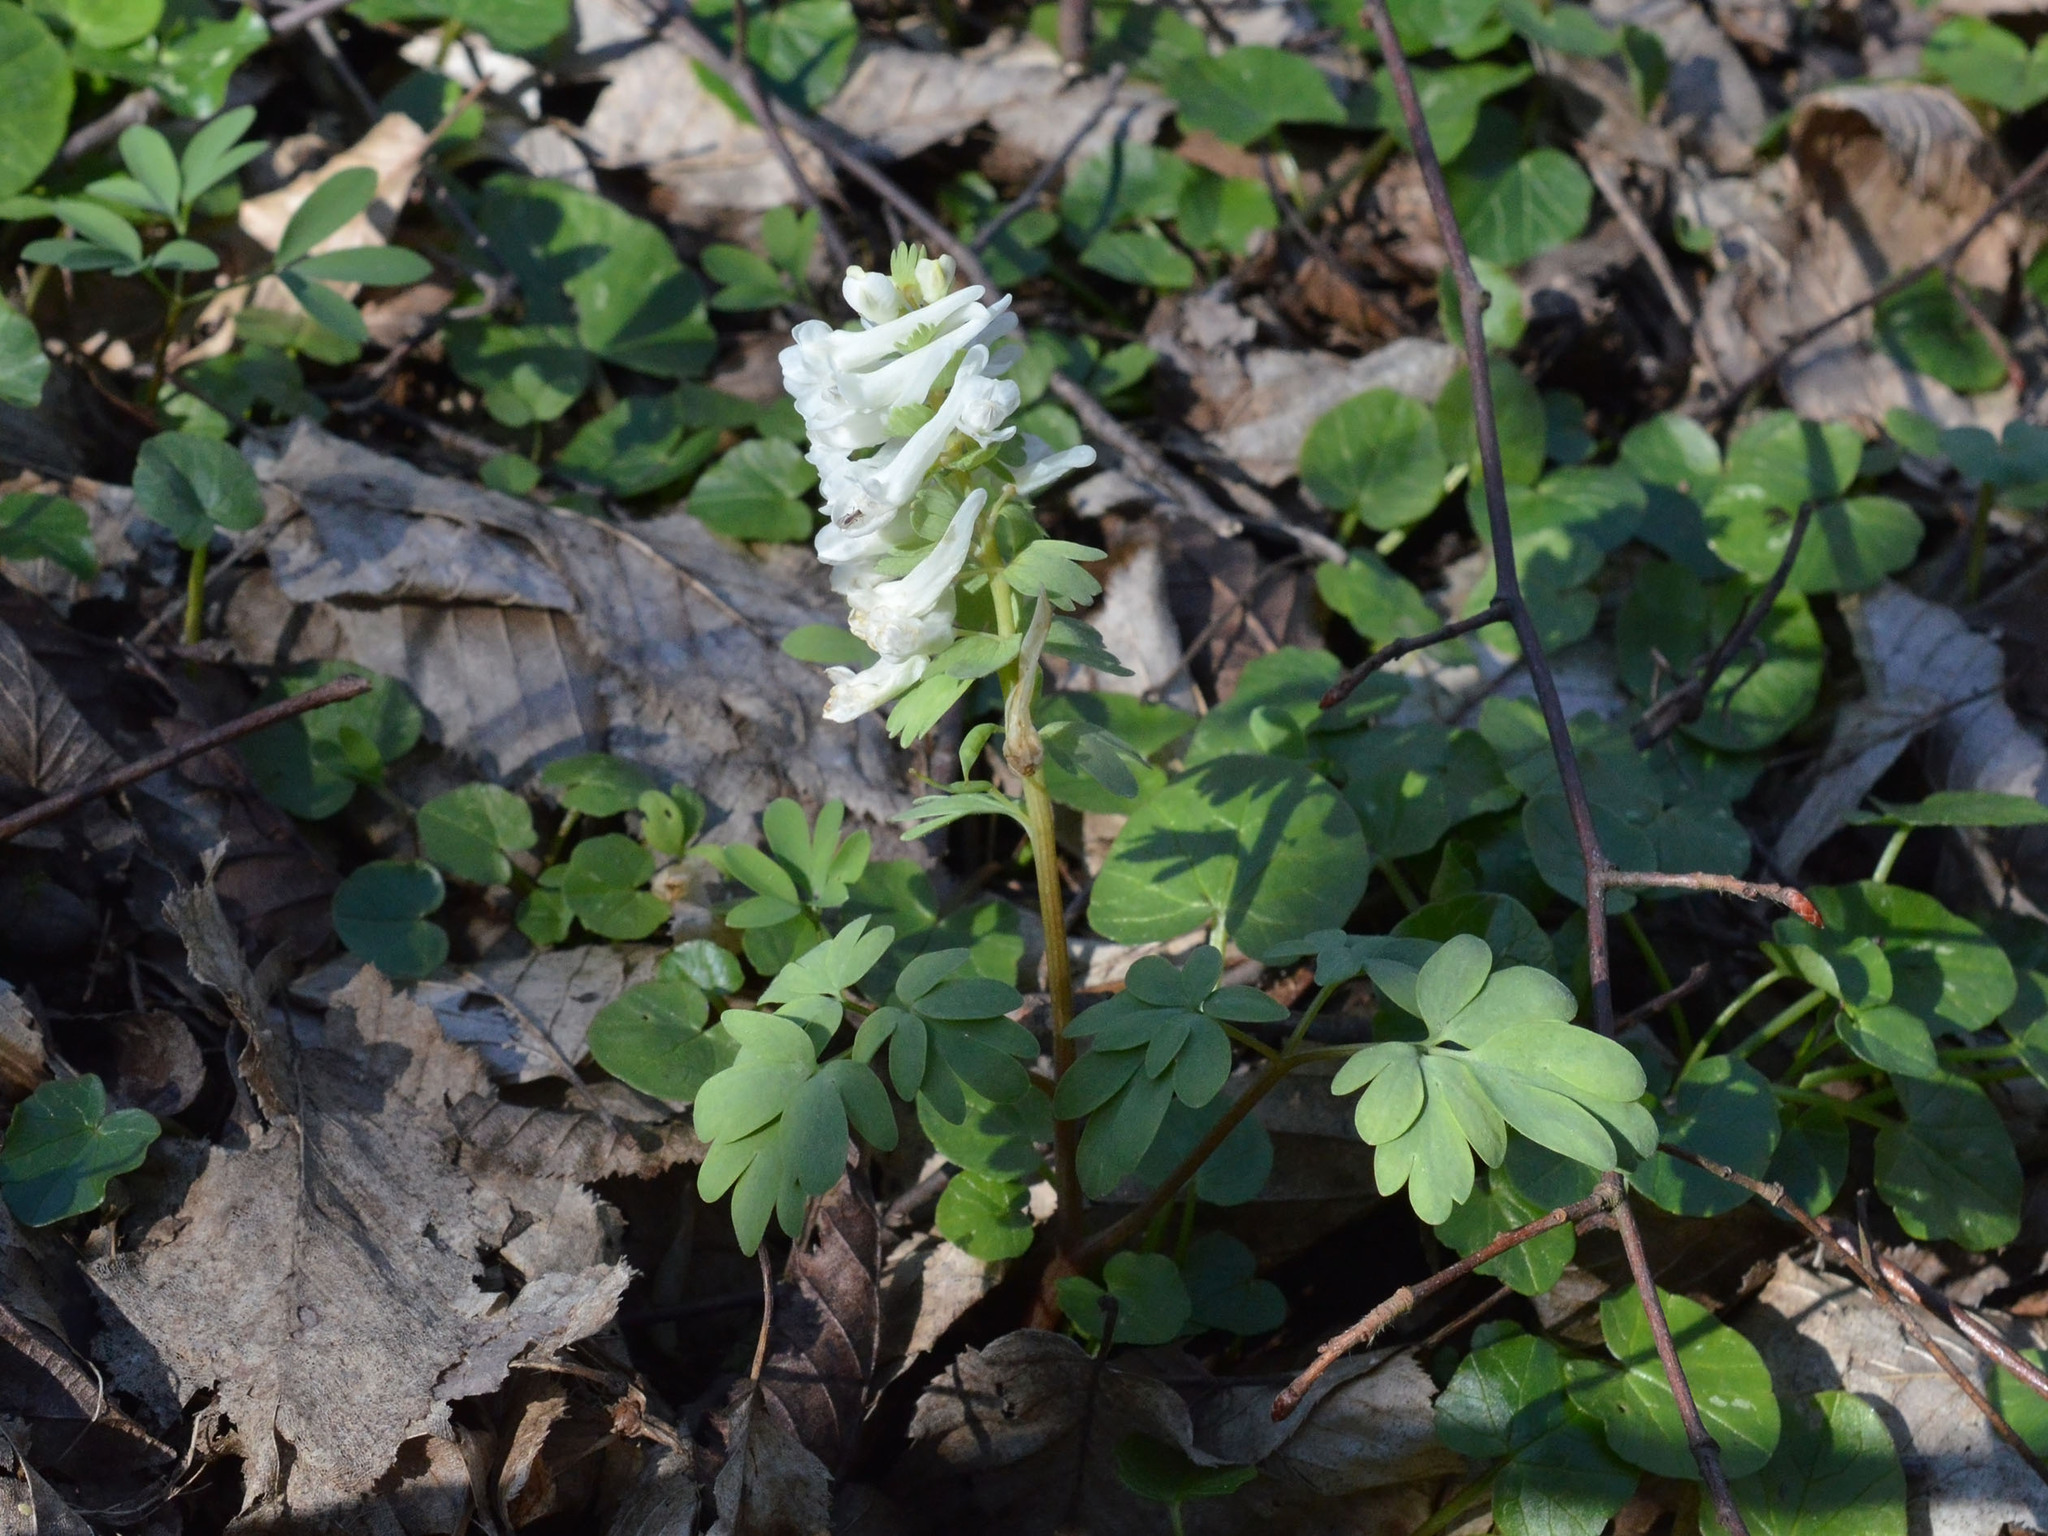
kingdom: Plantae
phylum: Tracheophyta
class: Magnoliopsida
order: Ranunculales
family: Papaveraceae
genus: Corydalis
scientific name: Corydalis solida
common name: Bird-in-a-bush
